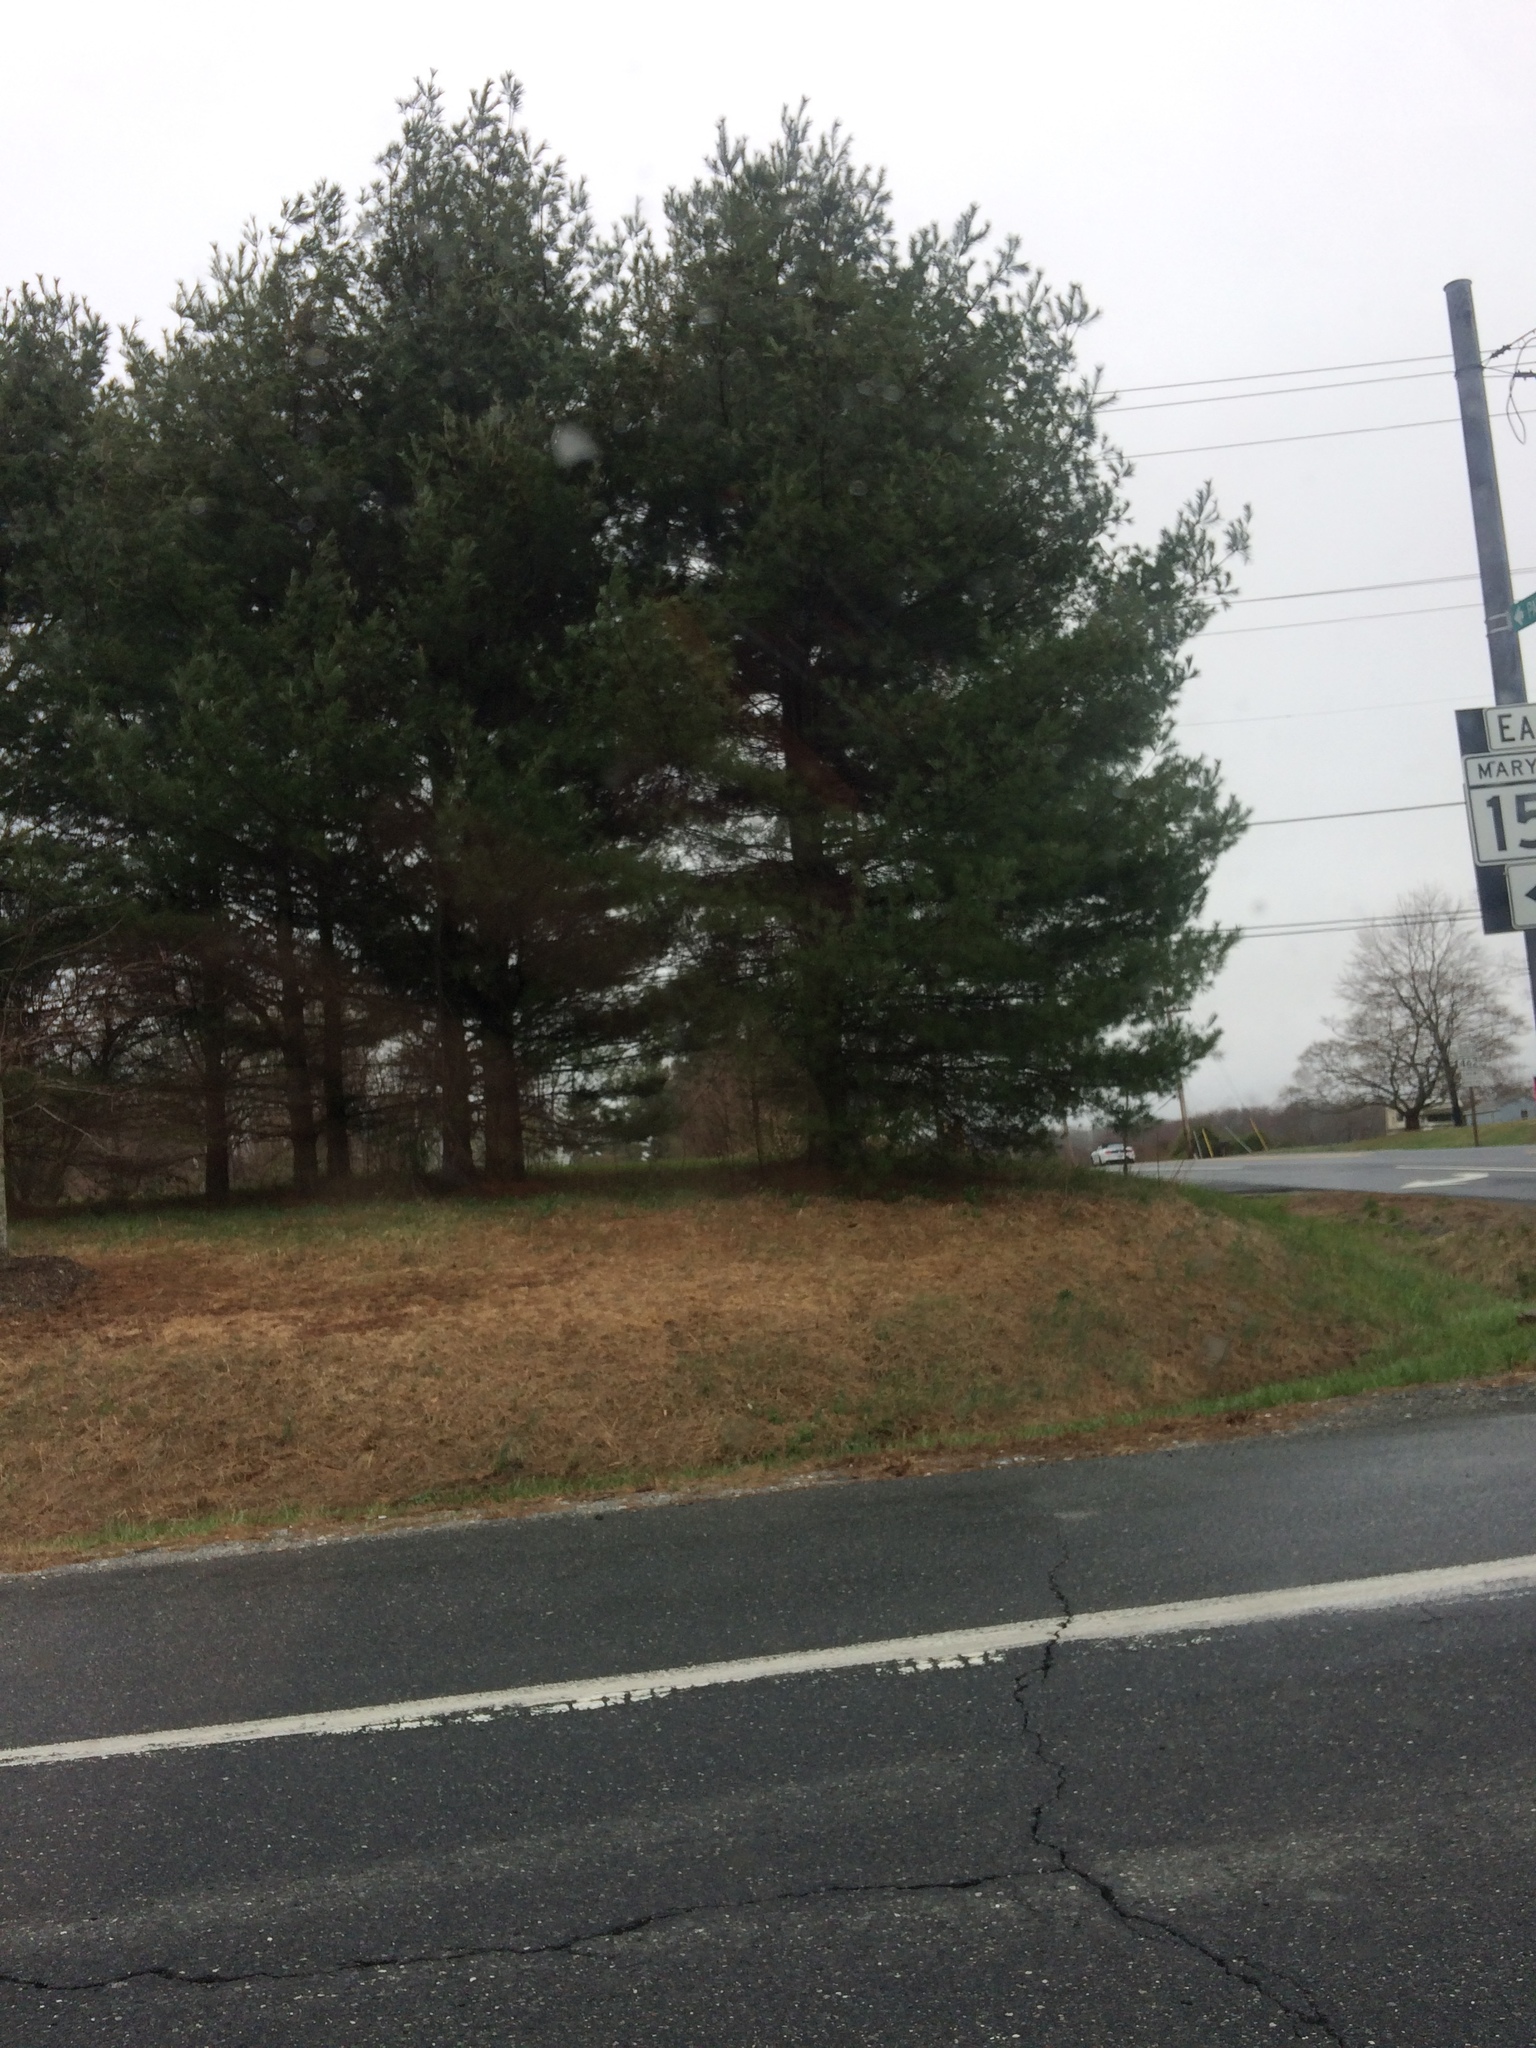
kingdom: Plantae
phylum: Tracheophyta
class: Pinopsida
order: Pinales
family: Pinaceae
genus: Pinus
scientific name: Pinus strobus
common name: Weymouth pine
